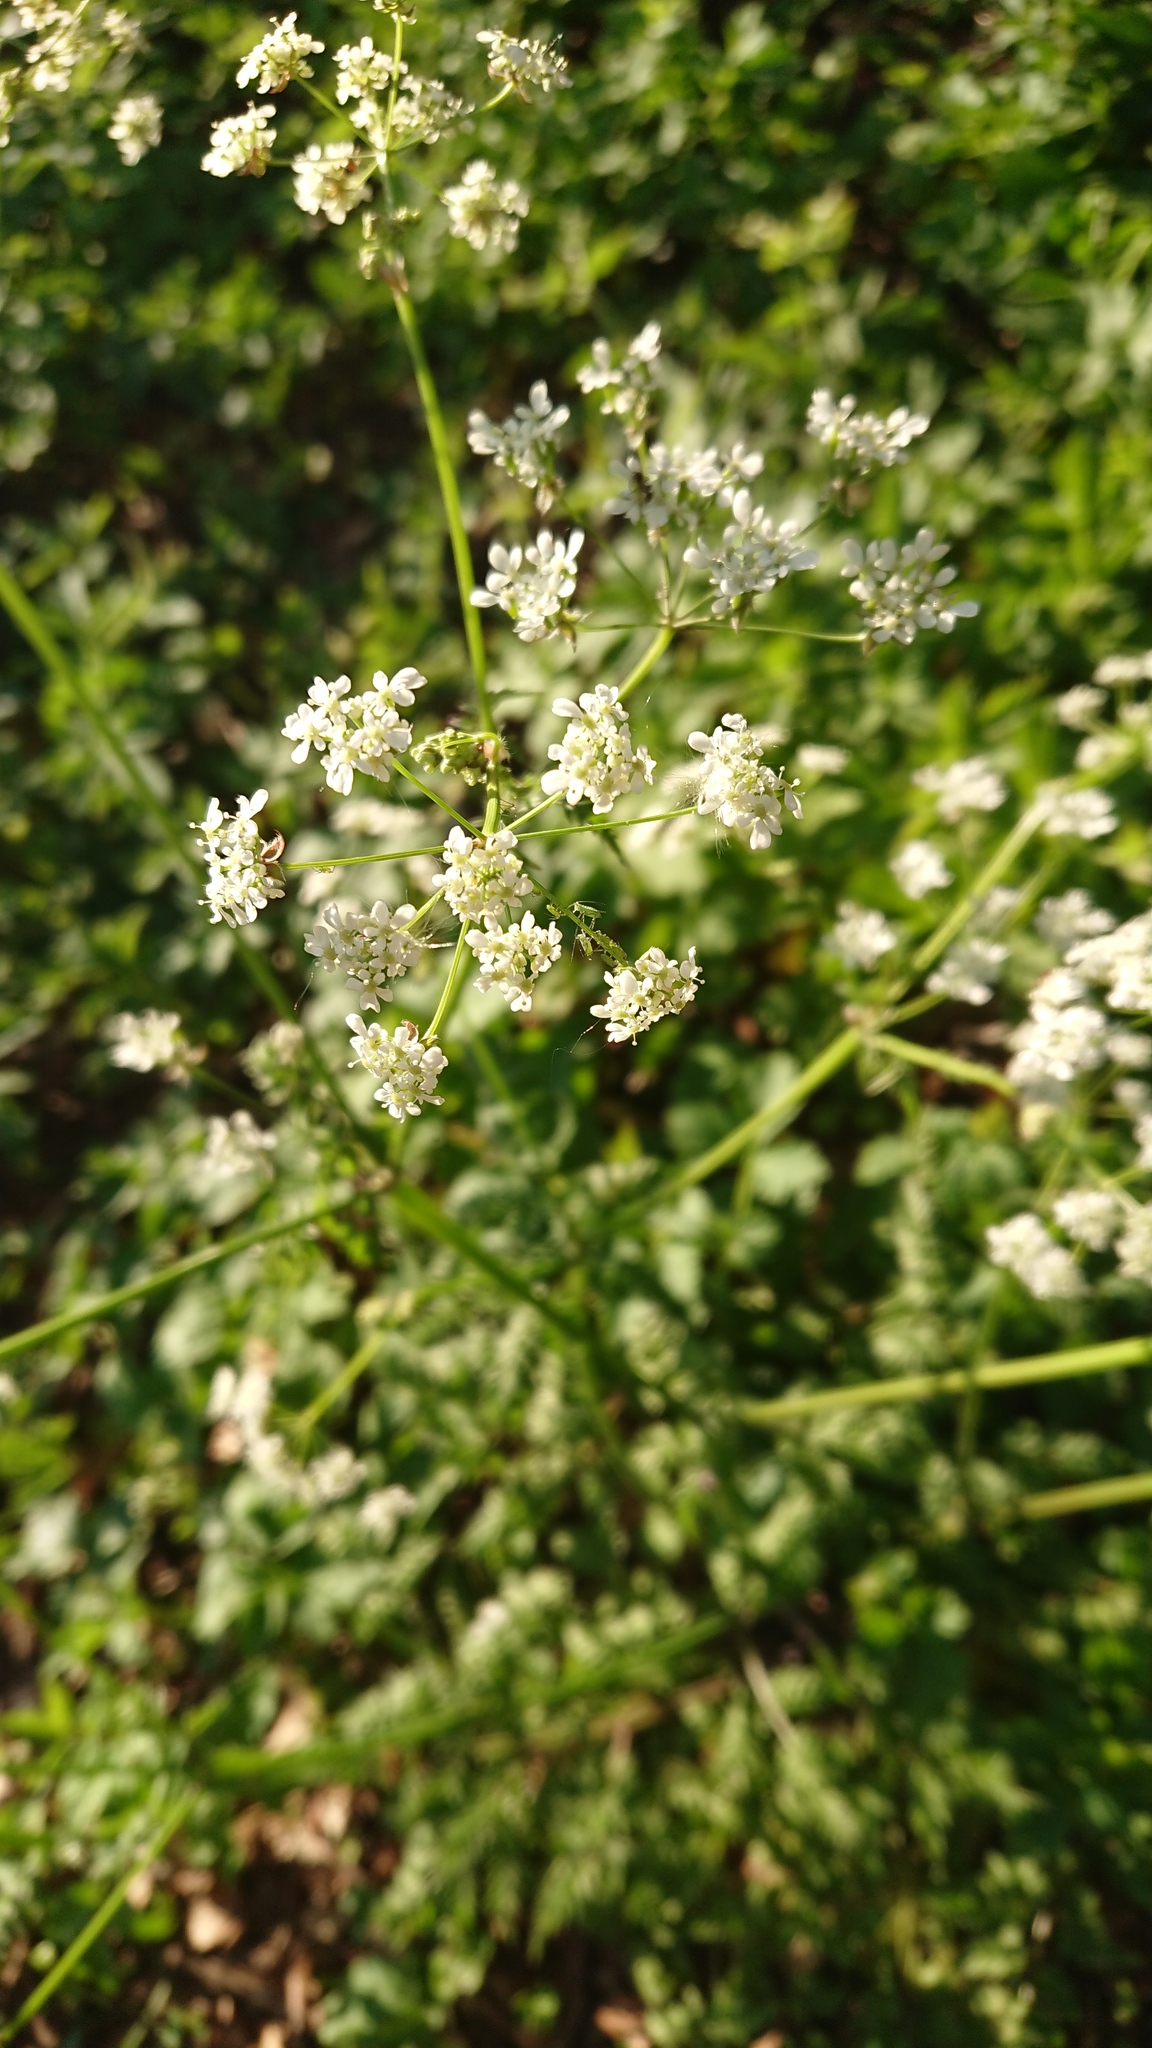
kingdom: Plantae
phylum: Tracheophyta
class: Magnoliopsida
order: Apiales
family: Apiaceae
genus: Anthriscus
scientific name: Anthriscus sylvestris
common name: Cow parsley
